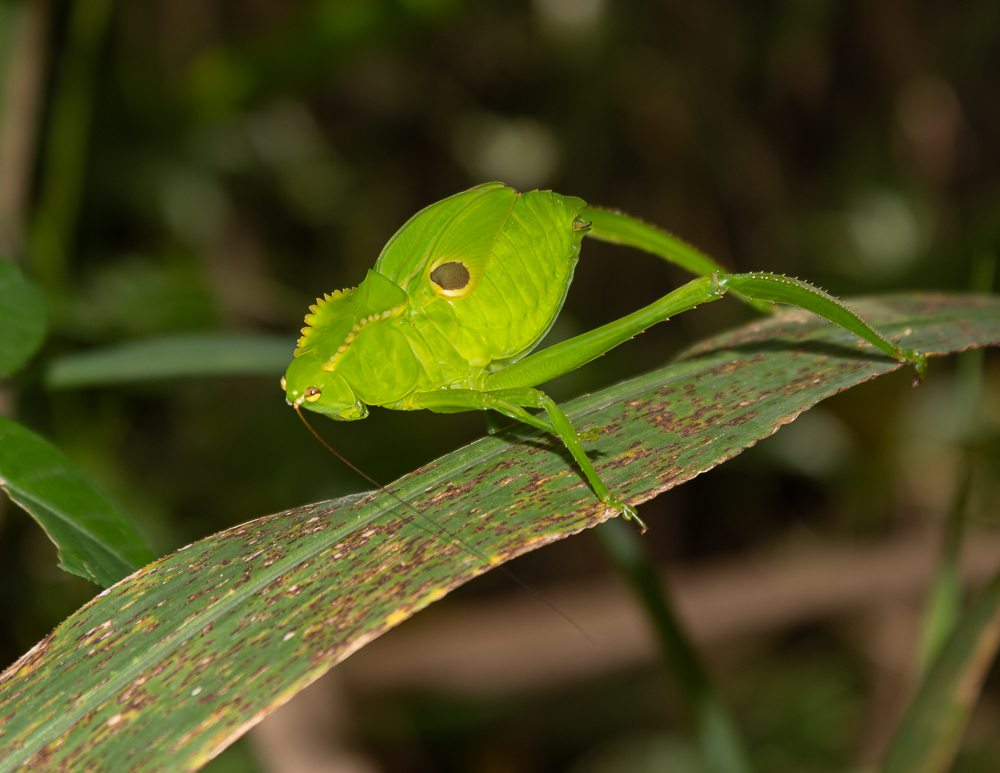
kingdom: Animalia
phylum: Arthropoda
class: Insecta
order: Orthoptera
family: Tettigoniidae
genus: Cnemidophyllum
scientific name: Cnemidophyllum citrifolium
